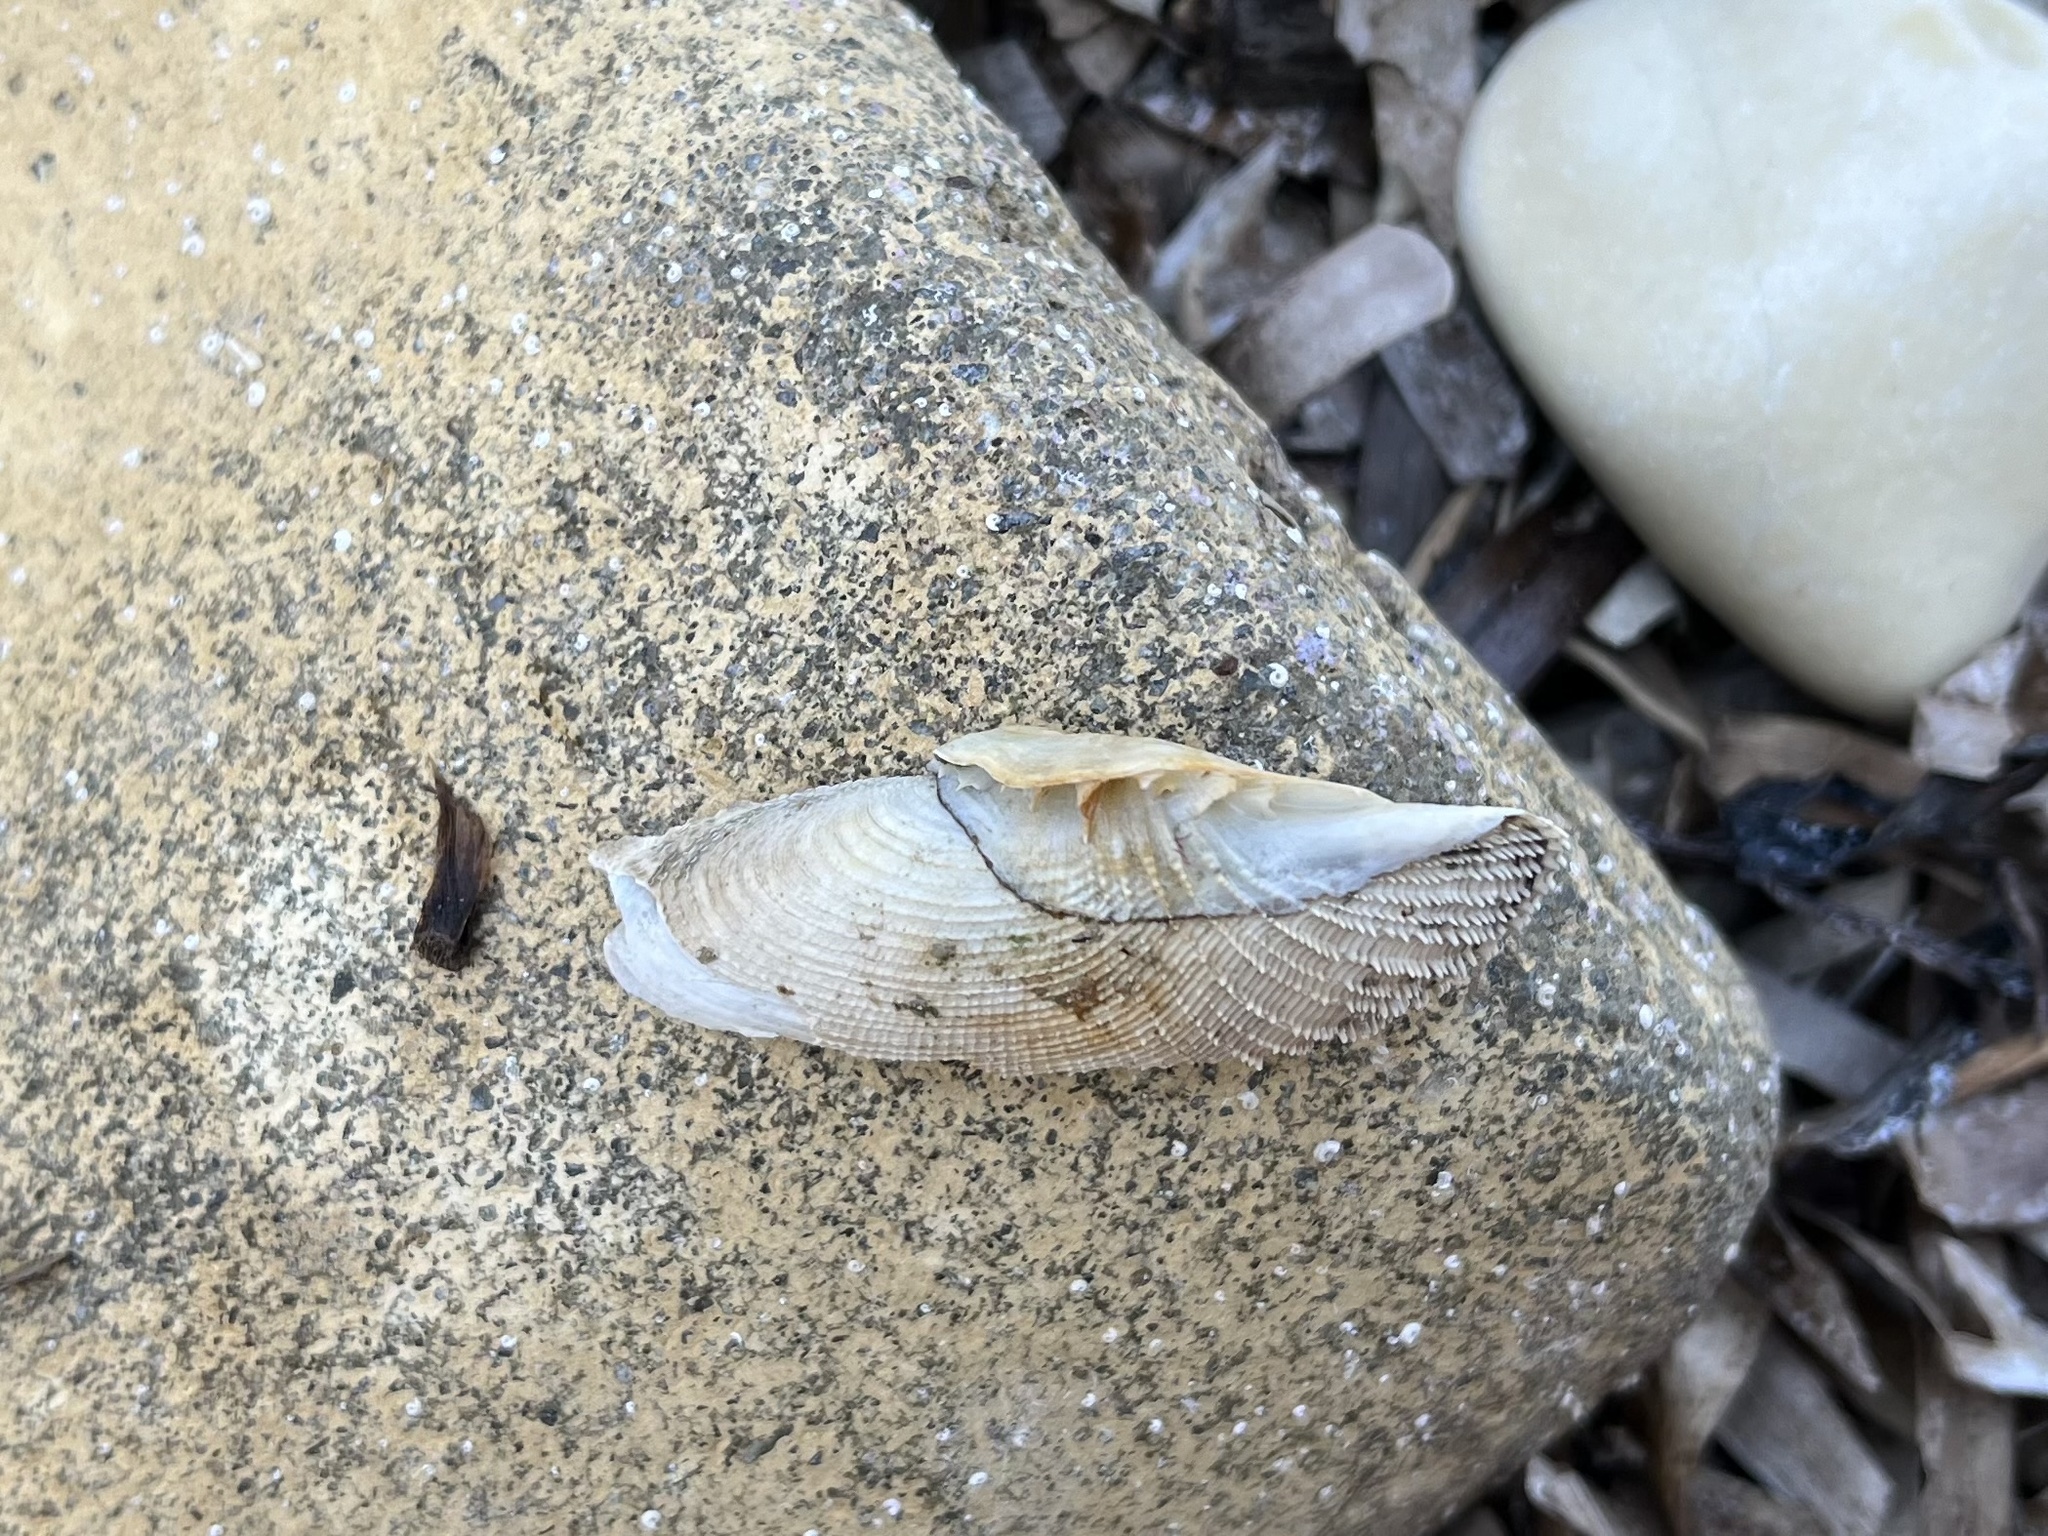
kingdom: Animalia
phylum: Mollusca
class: Bivalvia
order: Myida
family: Pholadidae
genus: Barnea
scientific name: Barnea candida
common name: White piddock
